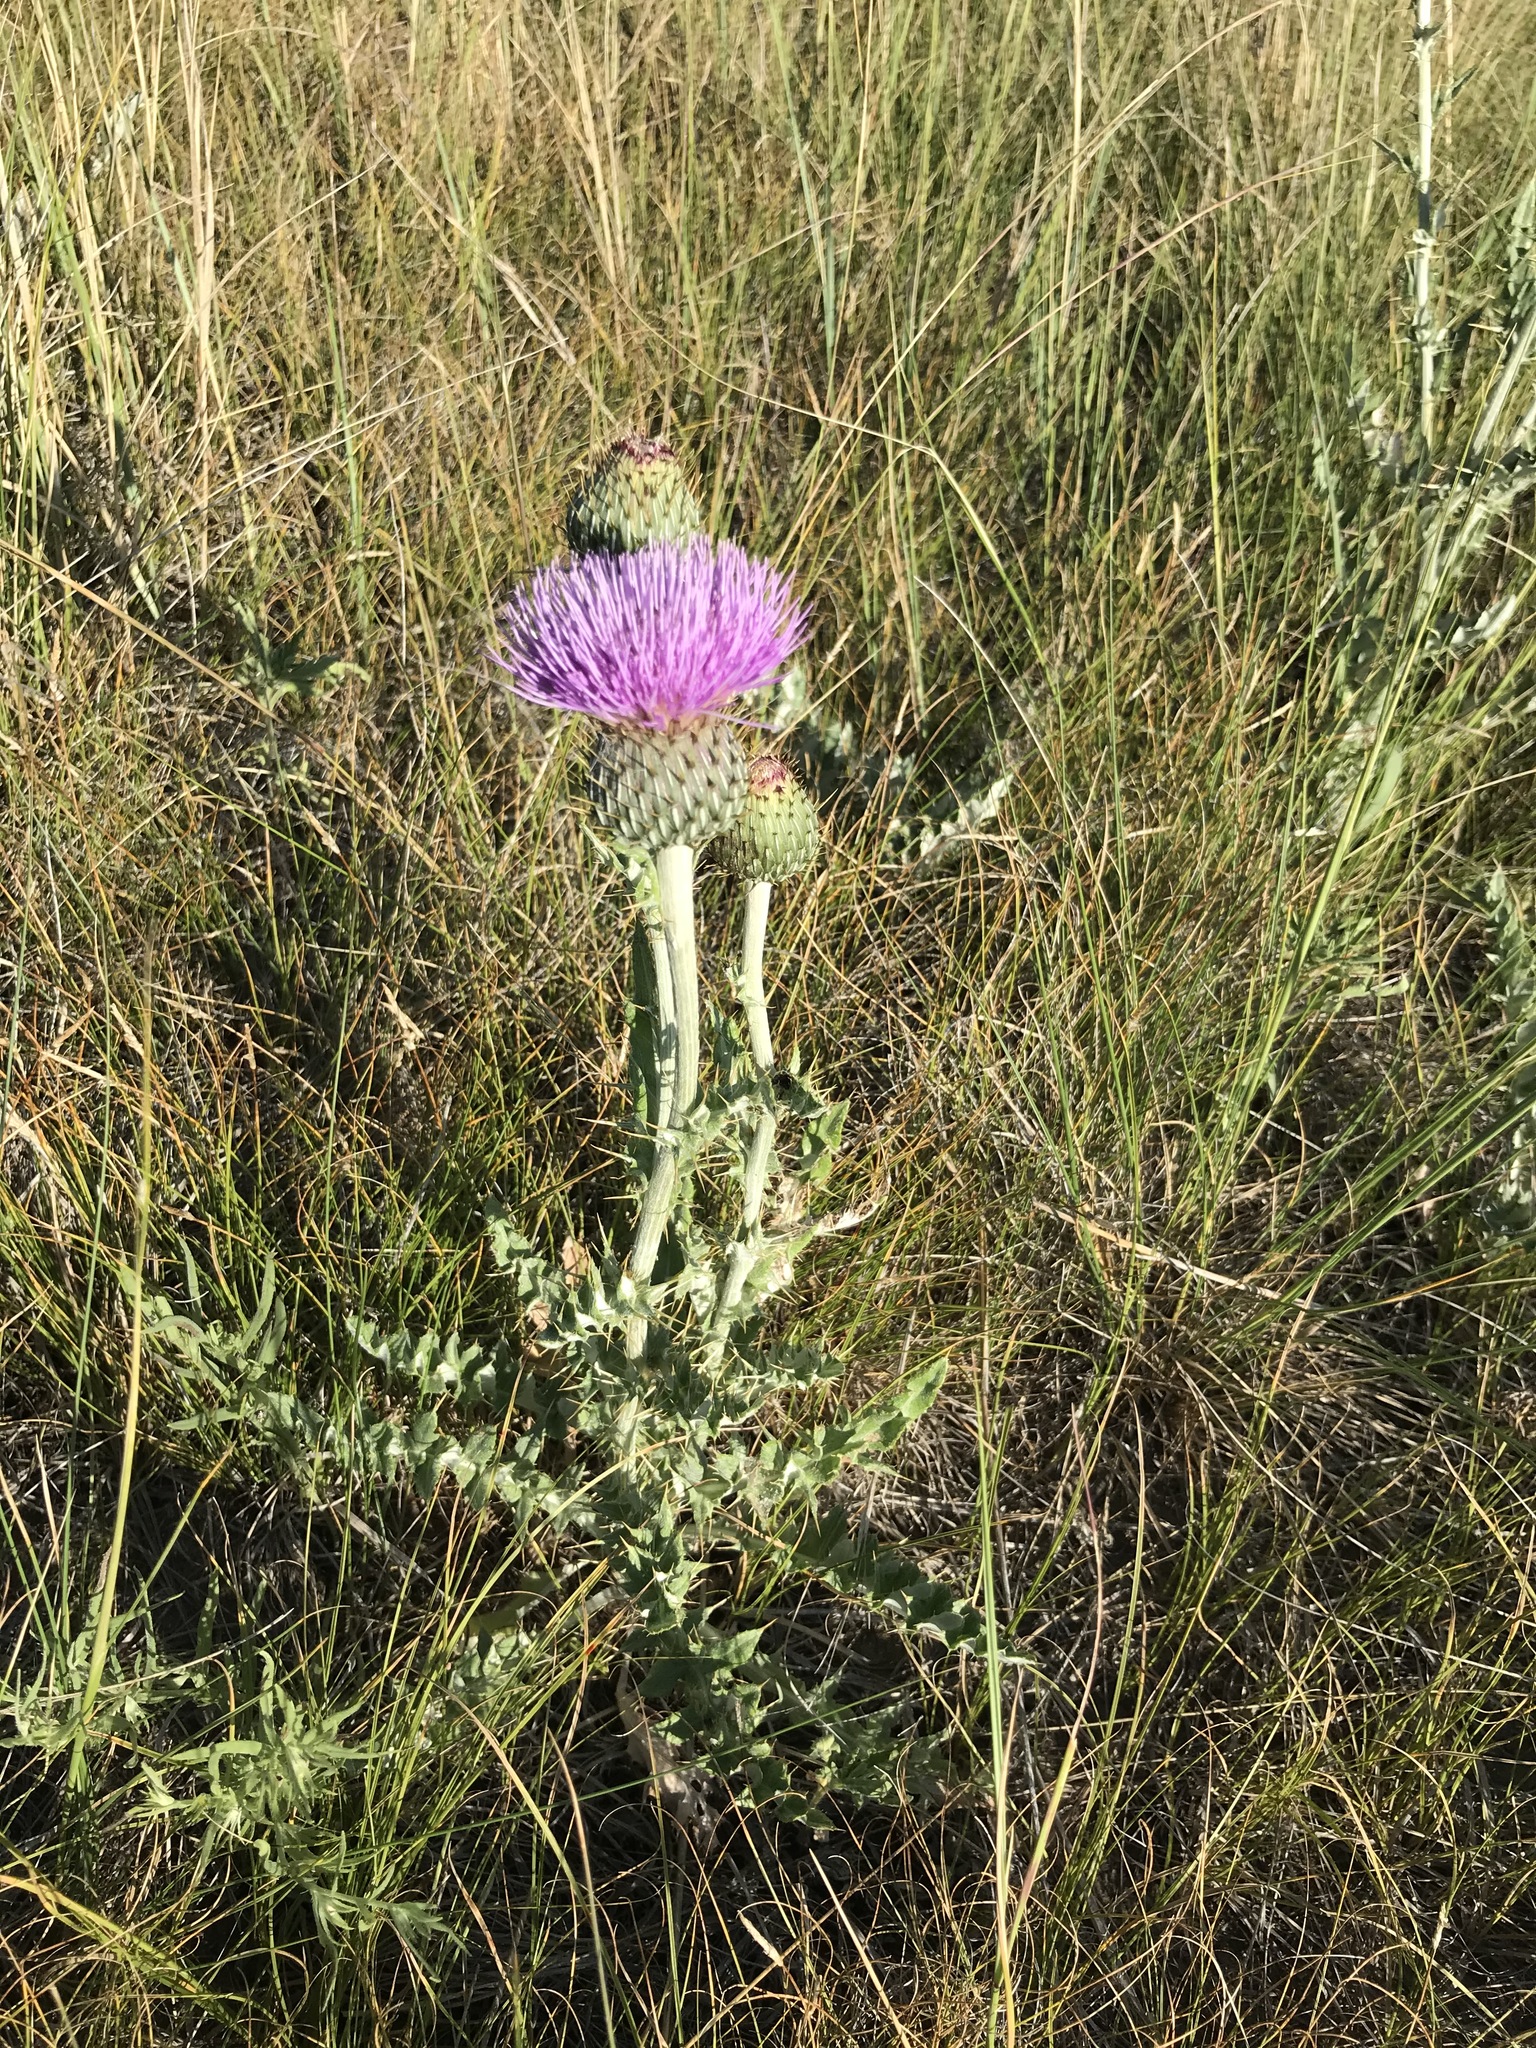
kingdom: Plantae
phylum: Tracheophyta
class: Magnoliopsida
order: Asterales
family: Asteraceae
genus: Cirsium
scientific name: Cirsium undulatum
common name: Pasture thistle
